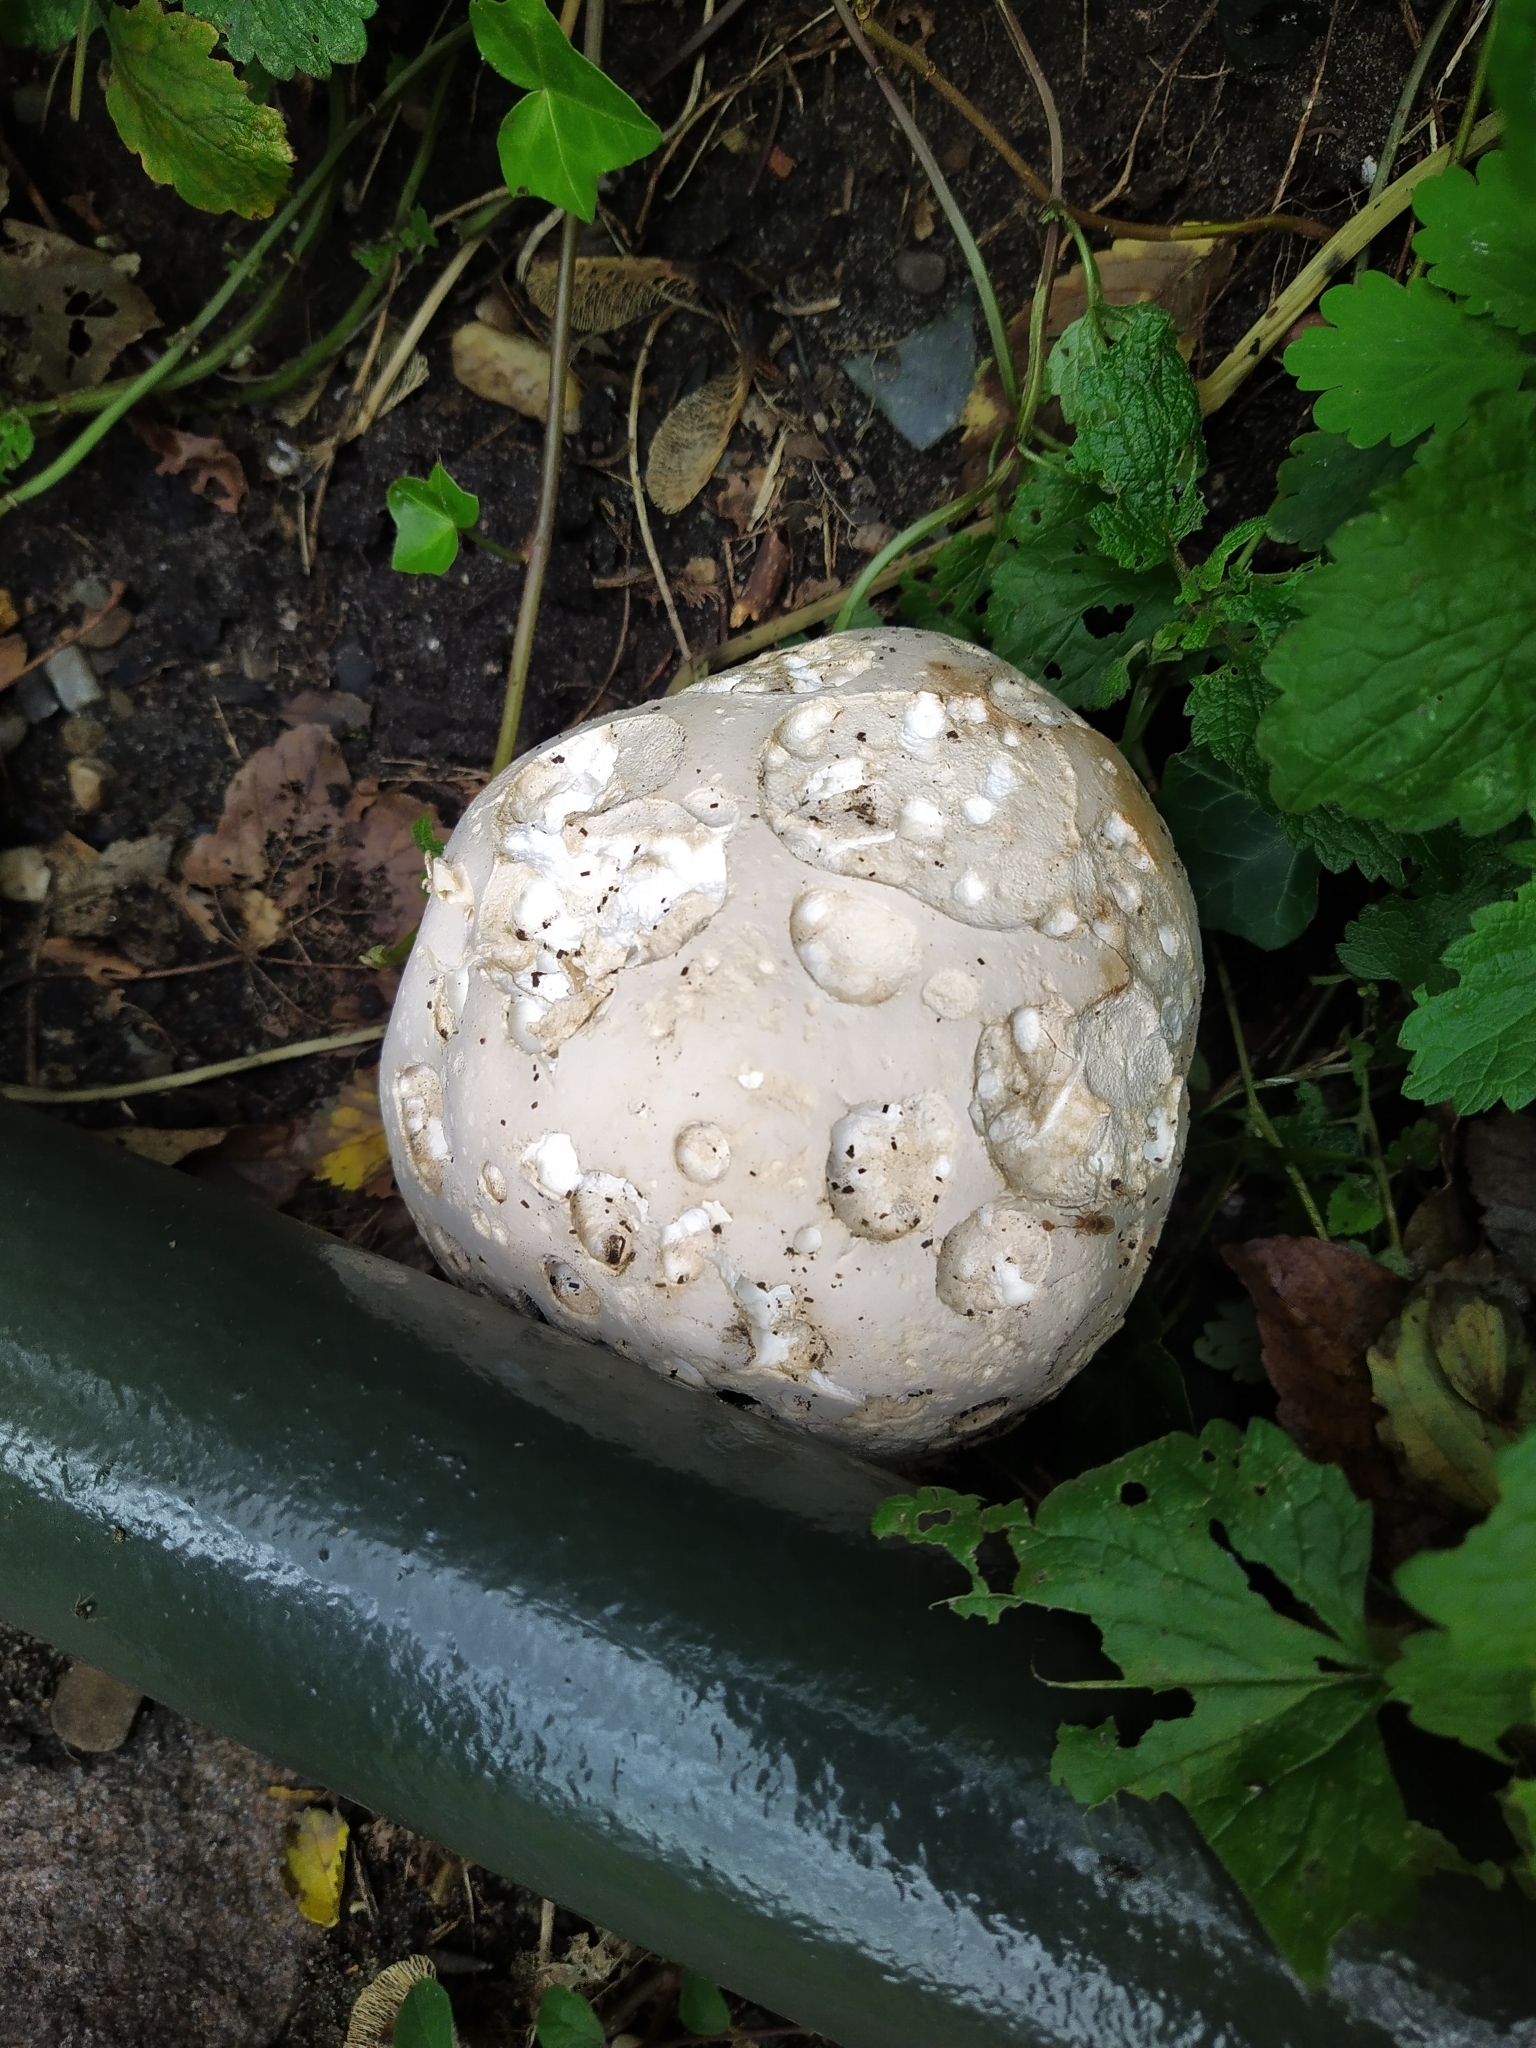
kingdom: Fungi
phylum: Basidiomycota
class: Agaricomycetes
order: Agaricales
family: Lycoperdaceae
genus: Calvatia
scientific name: Calvatia gigantea
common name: Giant puffball
